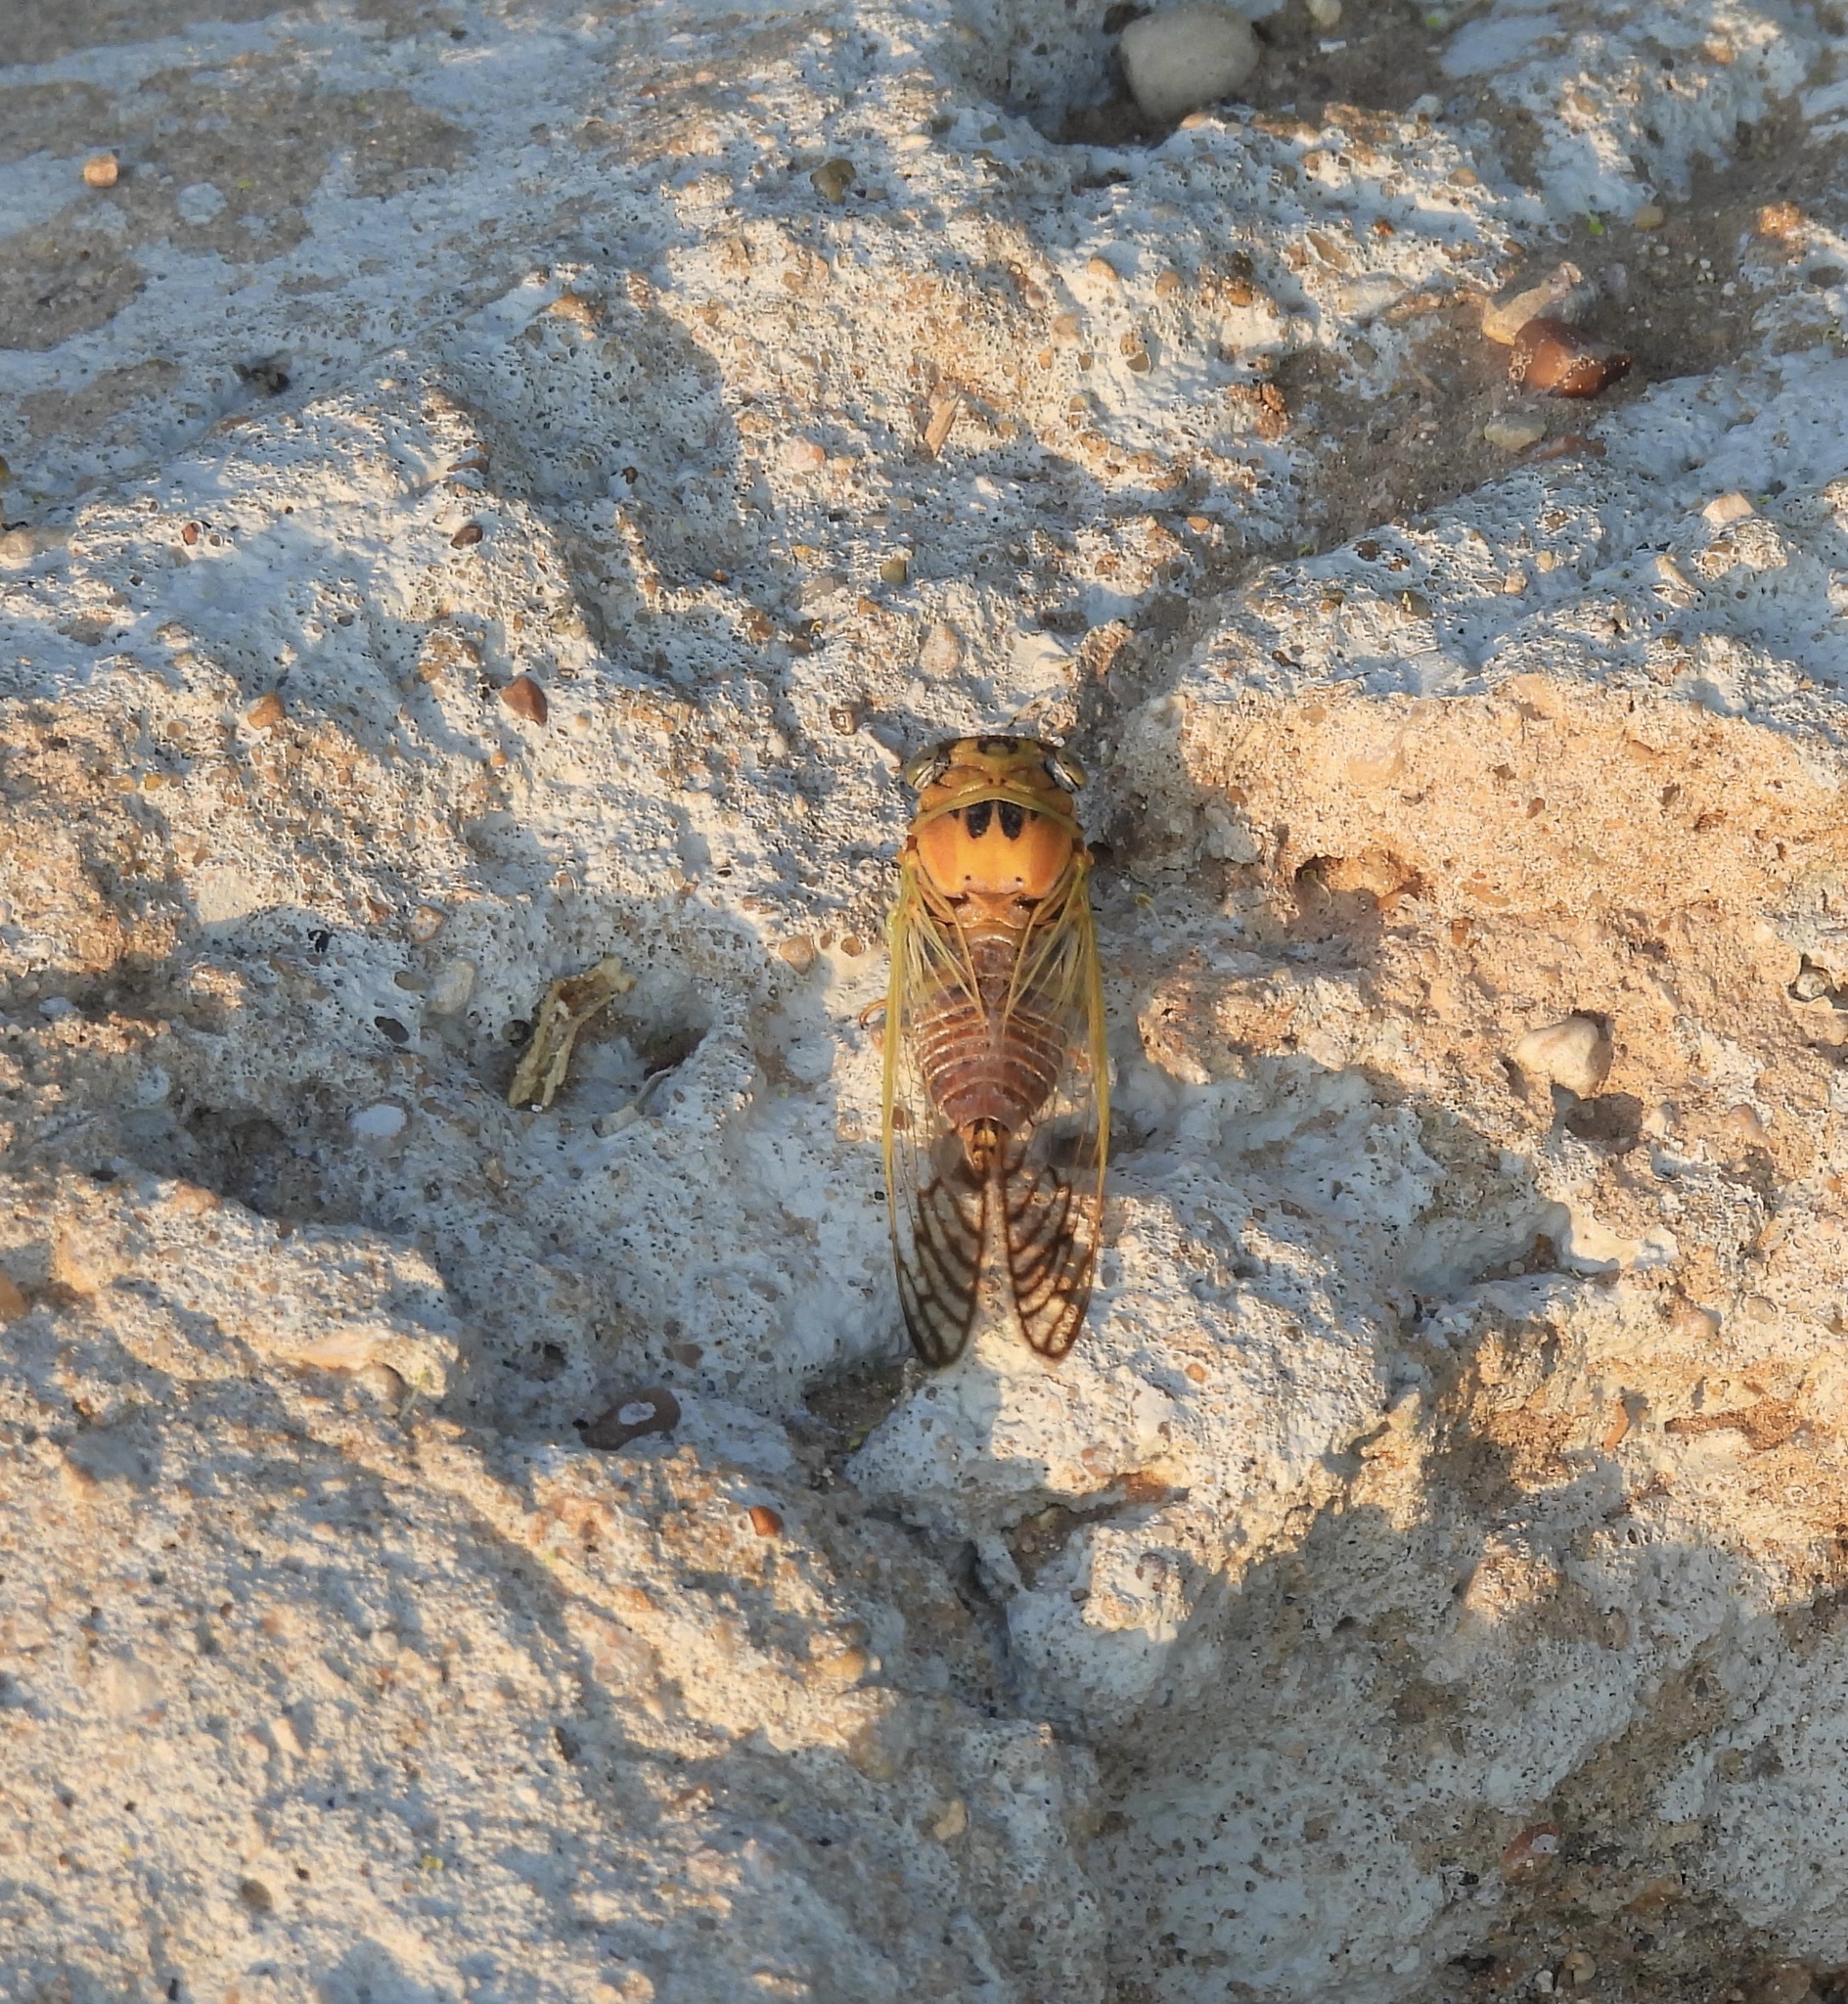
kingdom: Animalia
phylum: Arthropoda
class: Insecta
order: Hemiptera
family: Cicadidae
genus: Diceroprocta
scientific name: Diceroprocta aurantiaca
